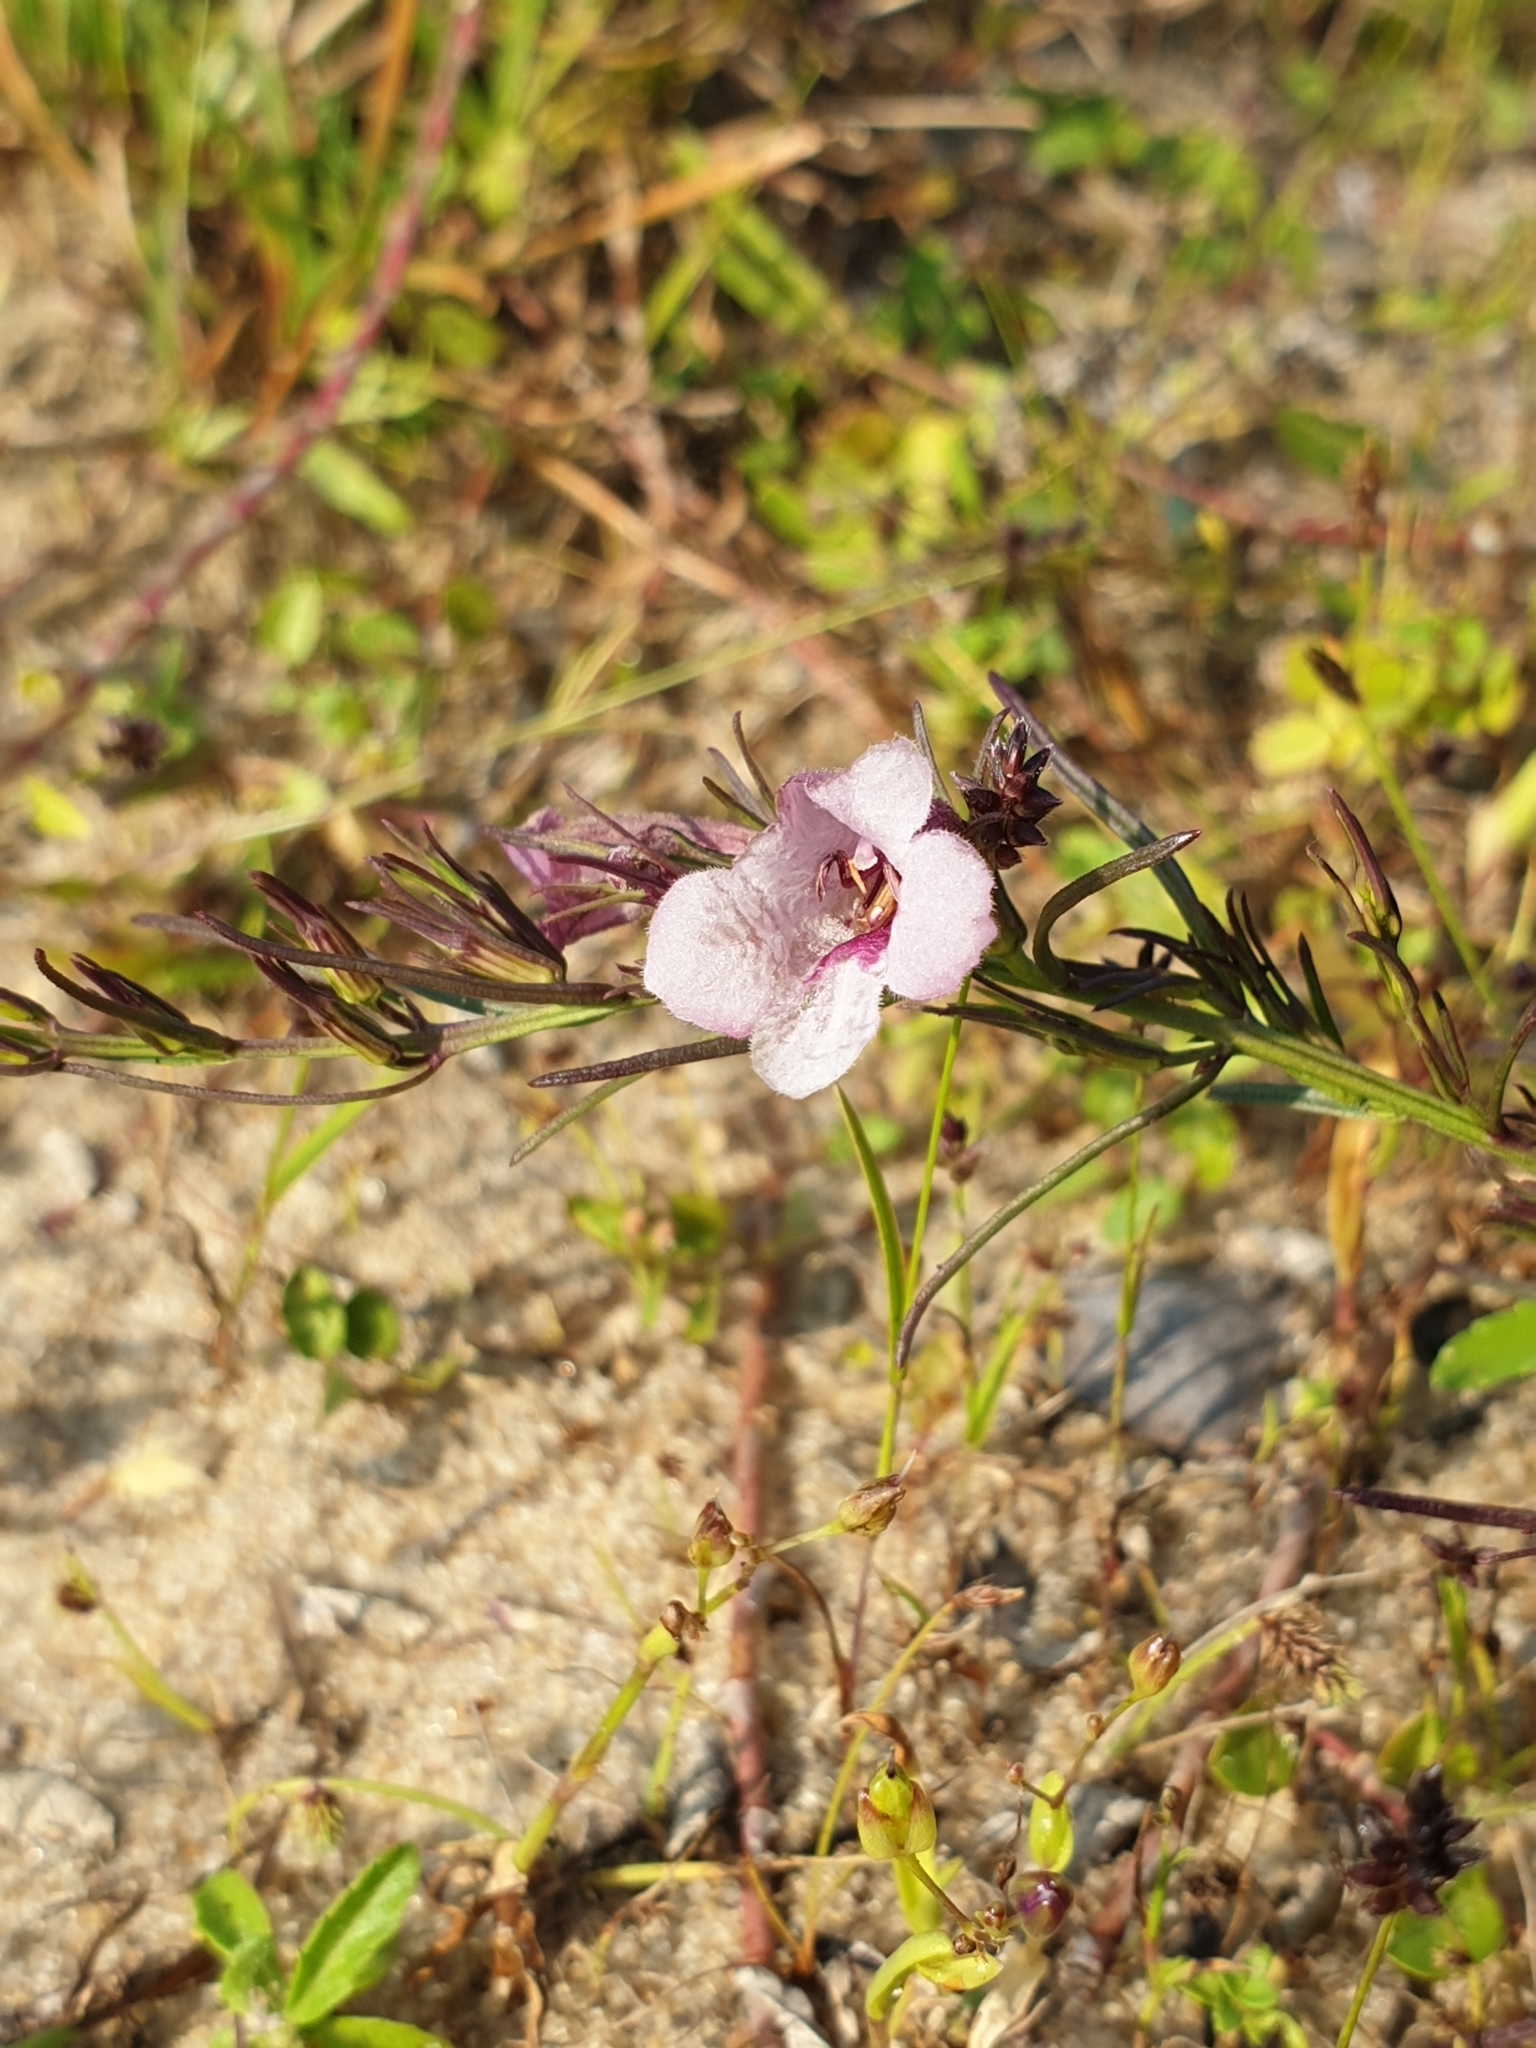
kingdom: Plantae
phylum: Tracheophyta
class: Magnoliopsida
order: Lamiales
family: Orobanchaceae
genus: Parasopubia
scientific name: Parasopubia delphiniifolia
